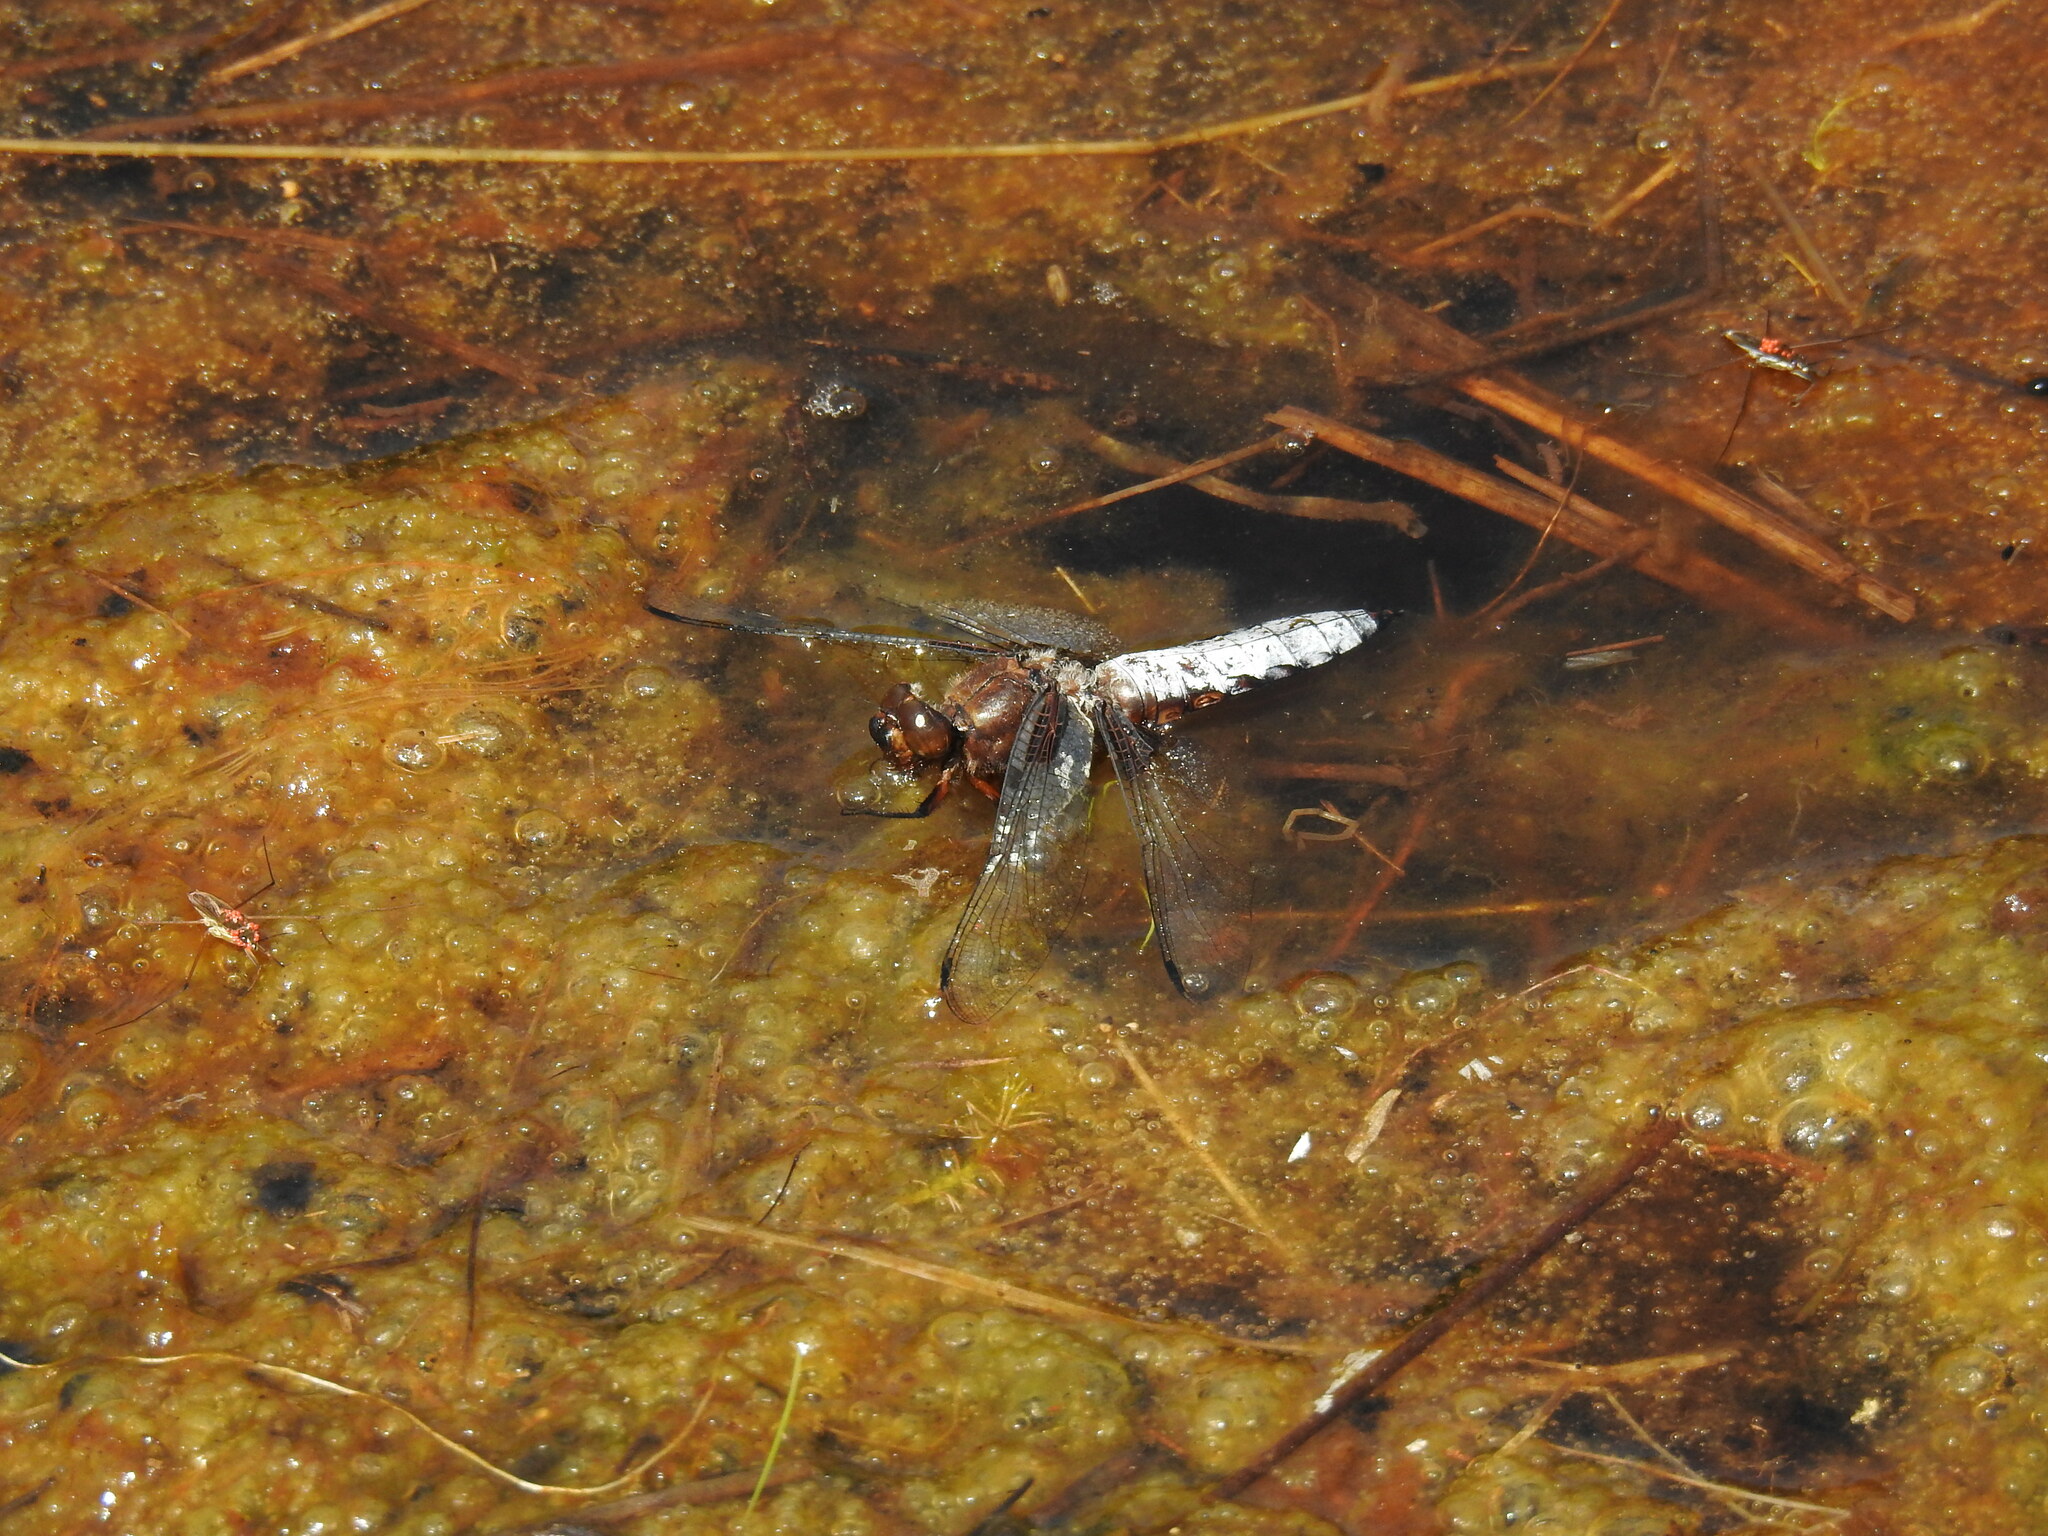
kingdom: Animalia
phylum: Arthropoda
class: Insecta
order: Odonata
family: Libellulidae
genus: Libellula
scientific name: Libellula depressa
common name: Broad-bodied chaser
